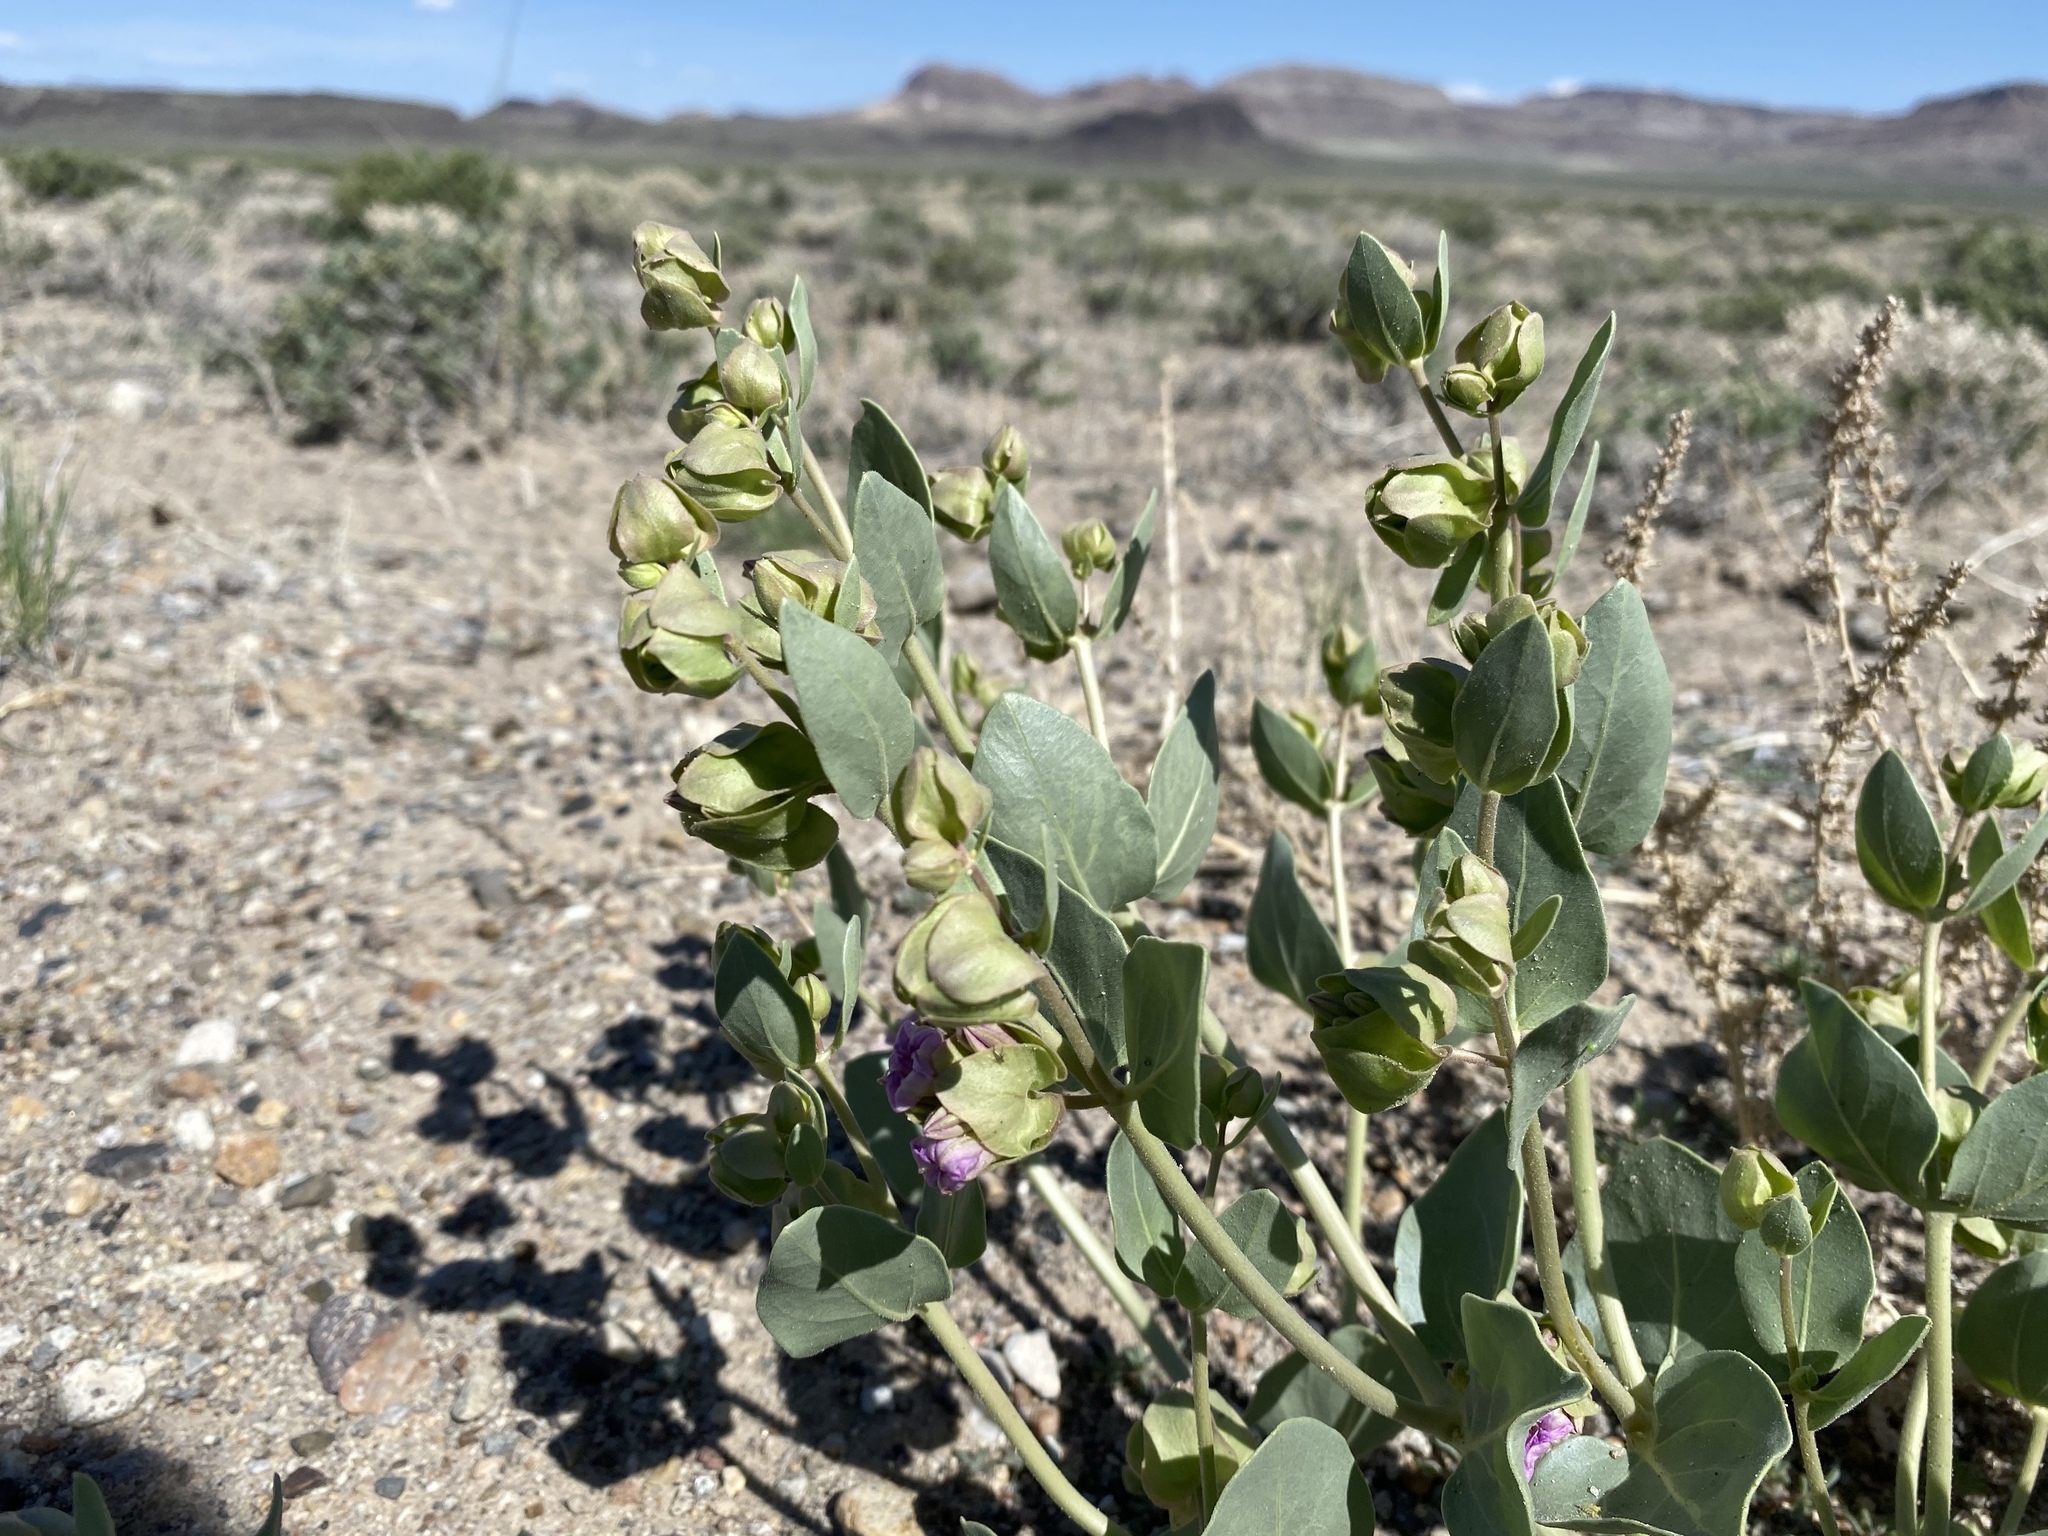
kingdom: Plantae
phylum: Tracheophyta
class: Magnoliopsida
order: Caryophyllales
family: Nyctaginaceae
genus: Mirabilis
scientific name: Mirabilis alipes
